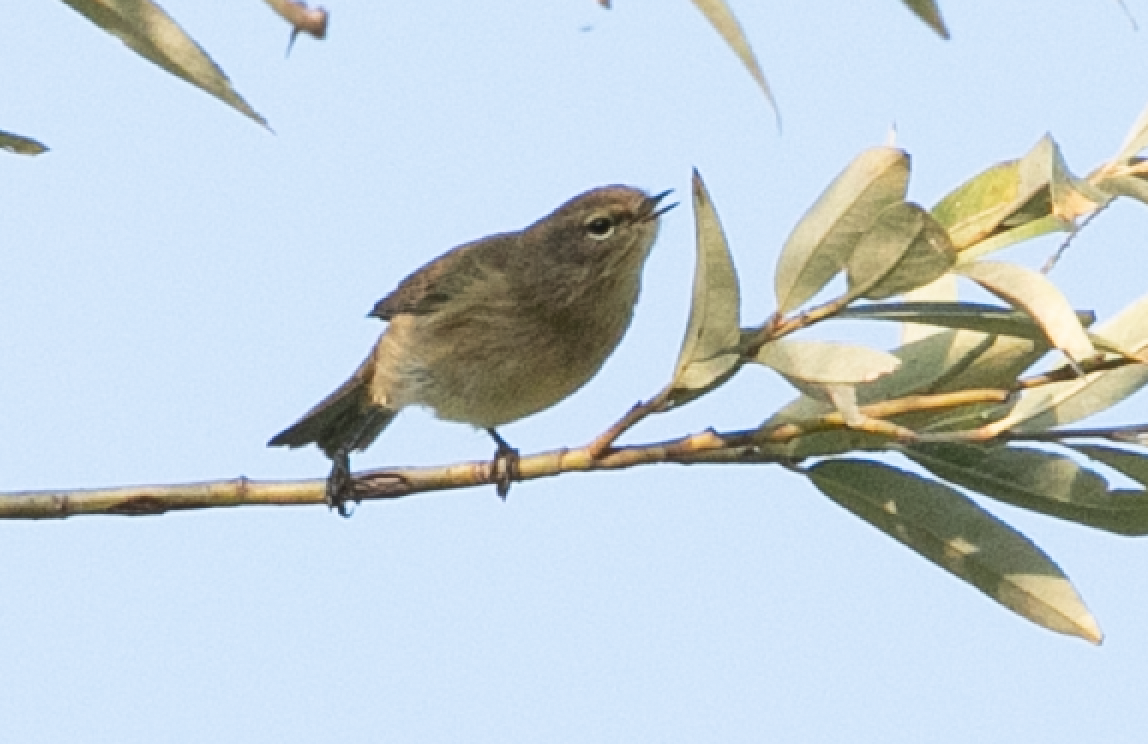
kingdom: Animalia
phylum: Chordata
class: Aves
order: Passeriformes
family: Phylloscopidae
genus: Phylloscopus
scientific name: Phylloscopus collybita
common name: Common chiffchaff
